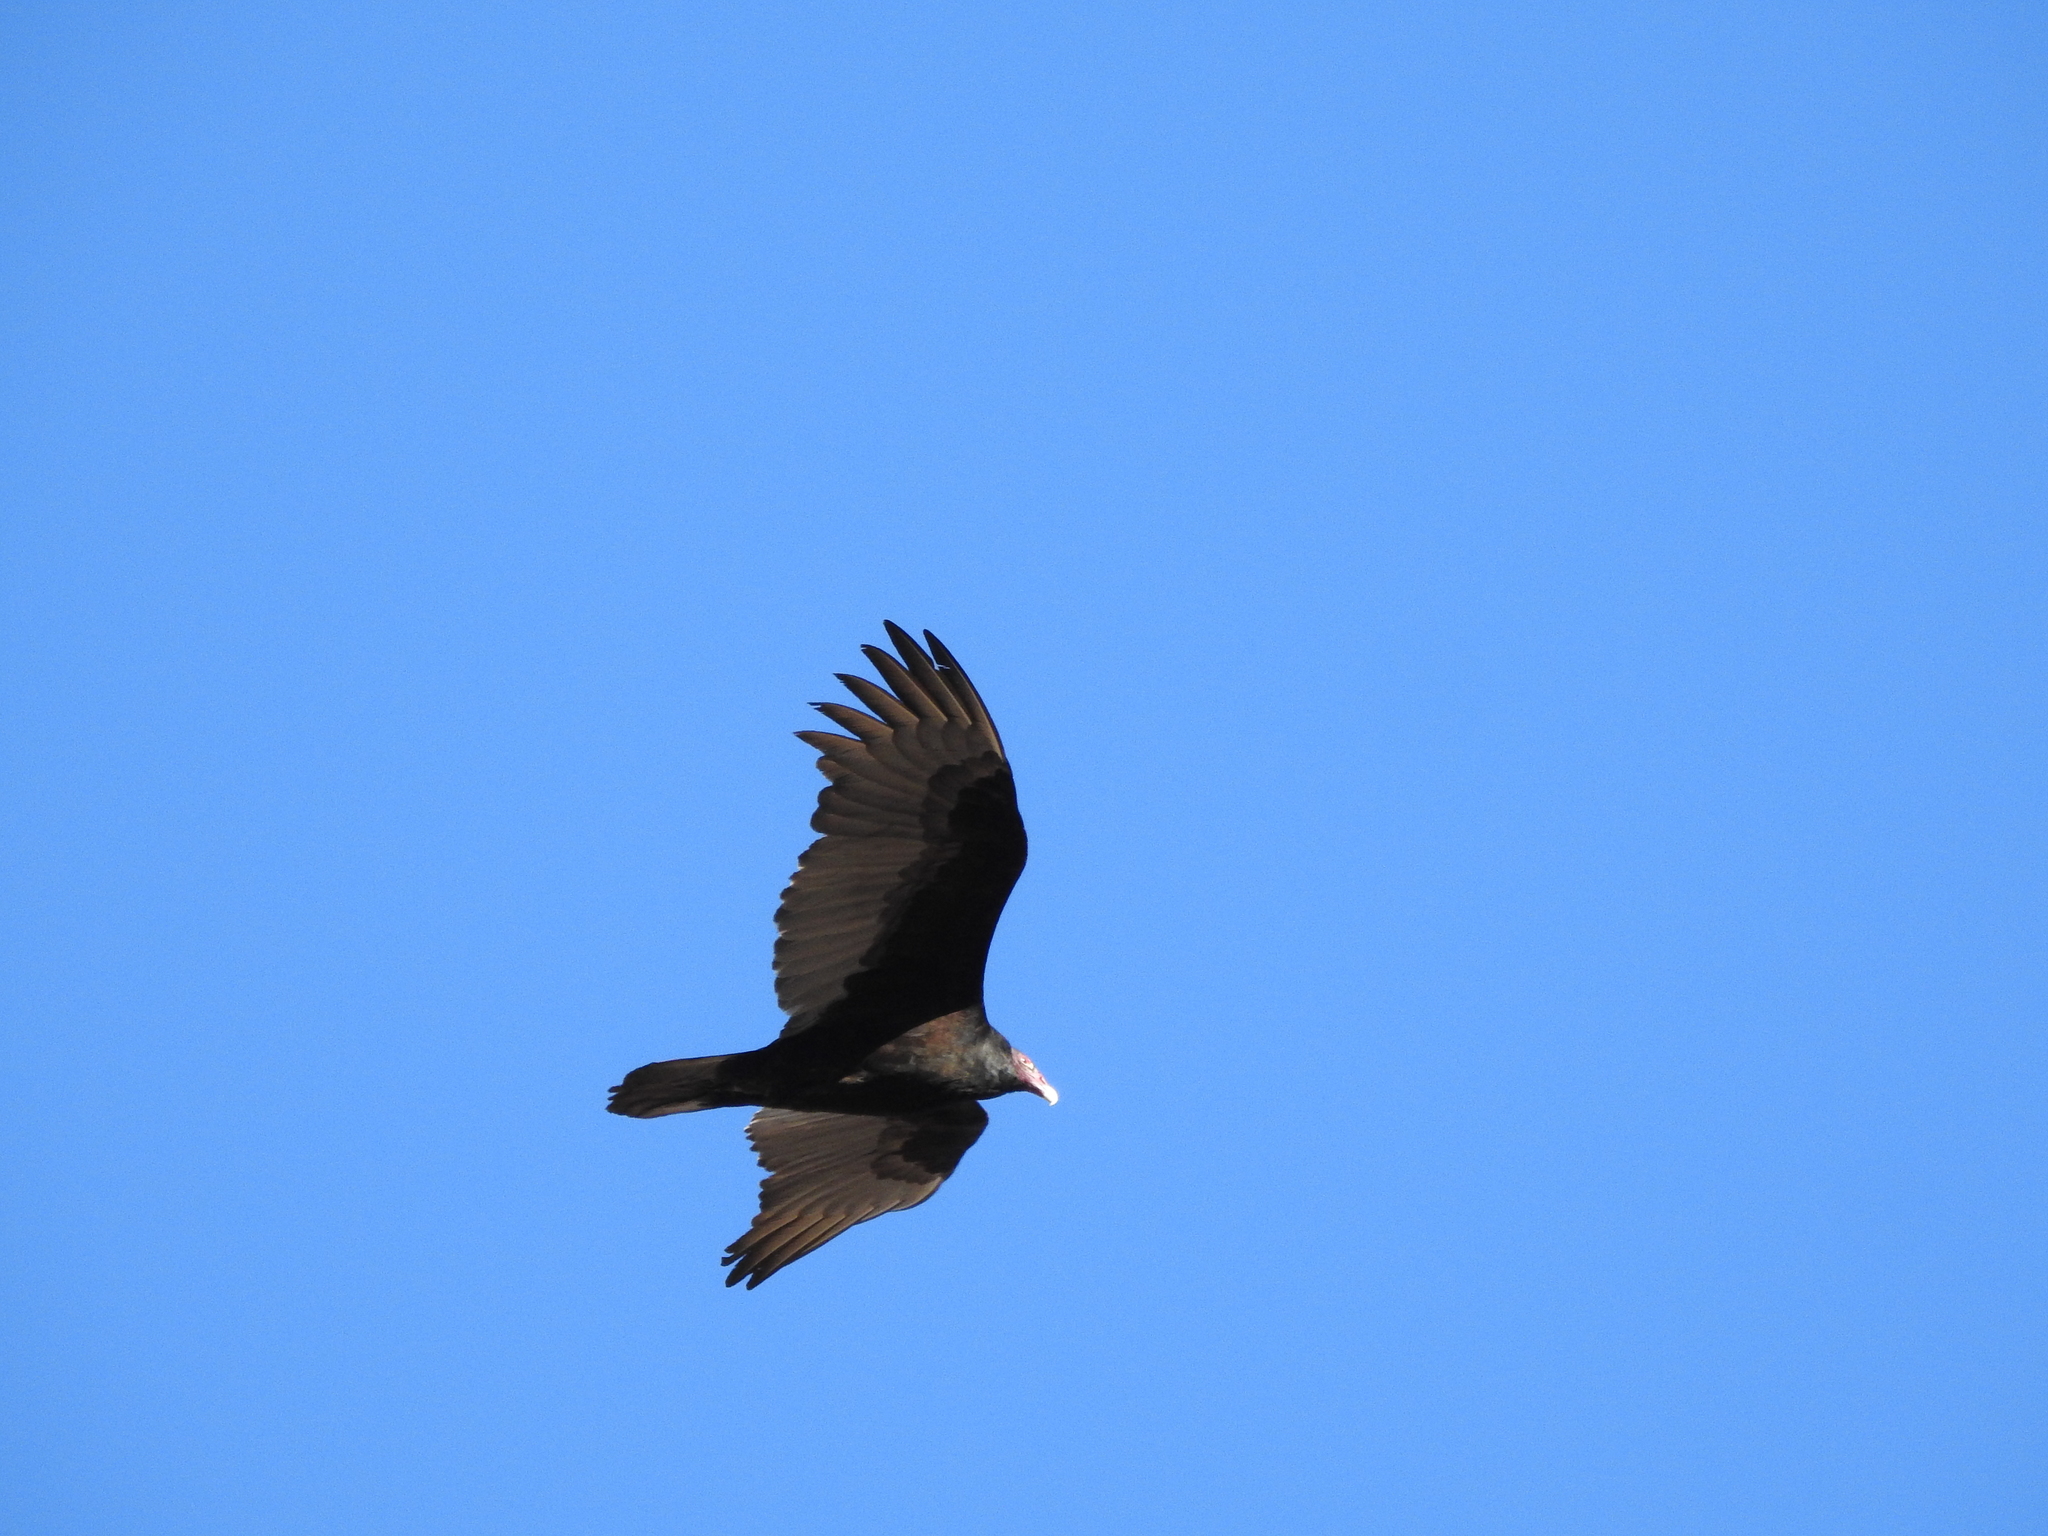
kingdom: Animalia
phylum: Chordata
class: Aves
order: Accipitriformes
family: Cathartidae
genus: Cathartes
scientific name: Cathartes aura
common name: Turkey vulture
